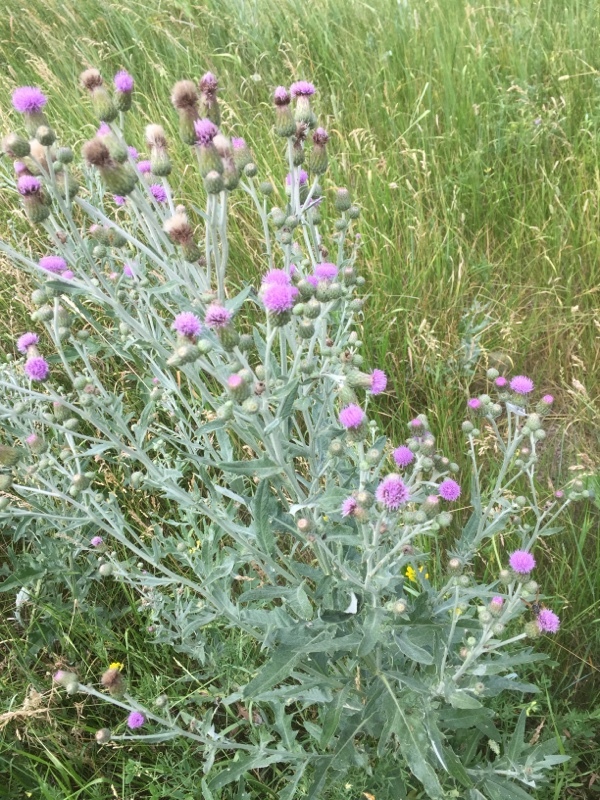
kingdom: Plantae
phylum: Tracheophyta
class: Magnoliopsida
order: Asterales
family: Asteraceae
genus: Cirsium
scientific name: Cirsium arvense
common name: Creeping thistle
